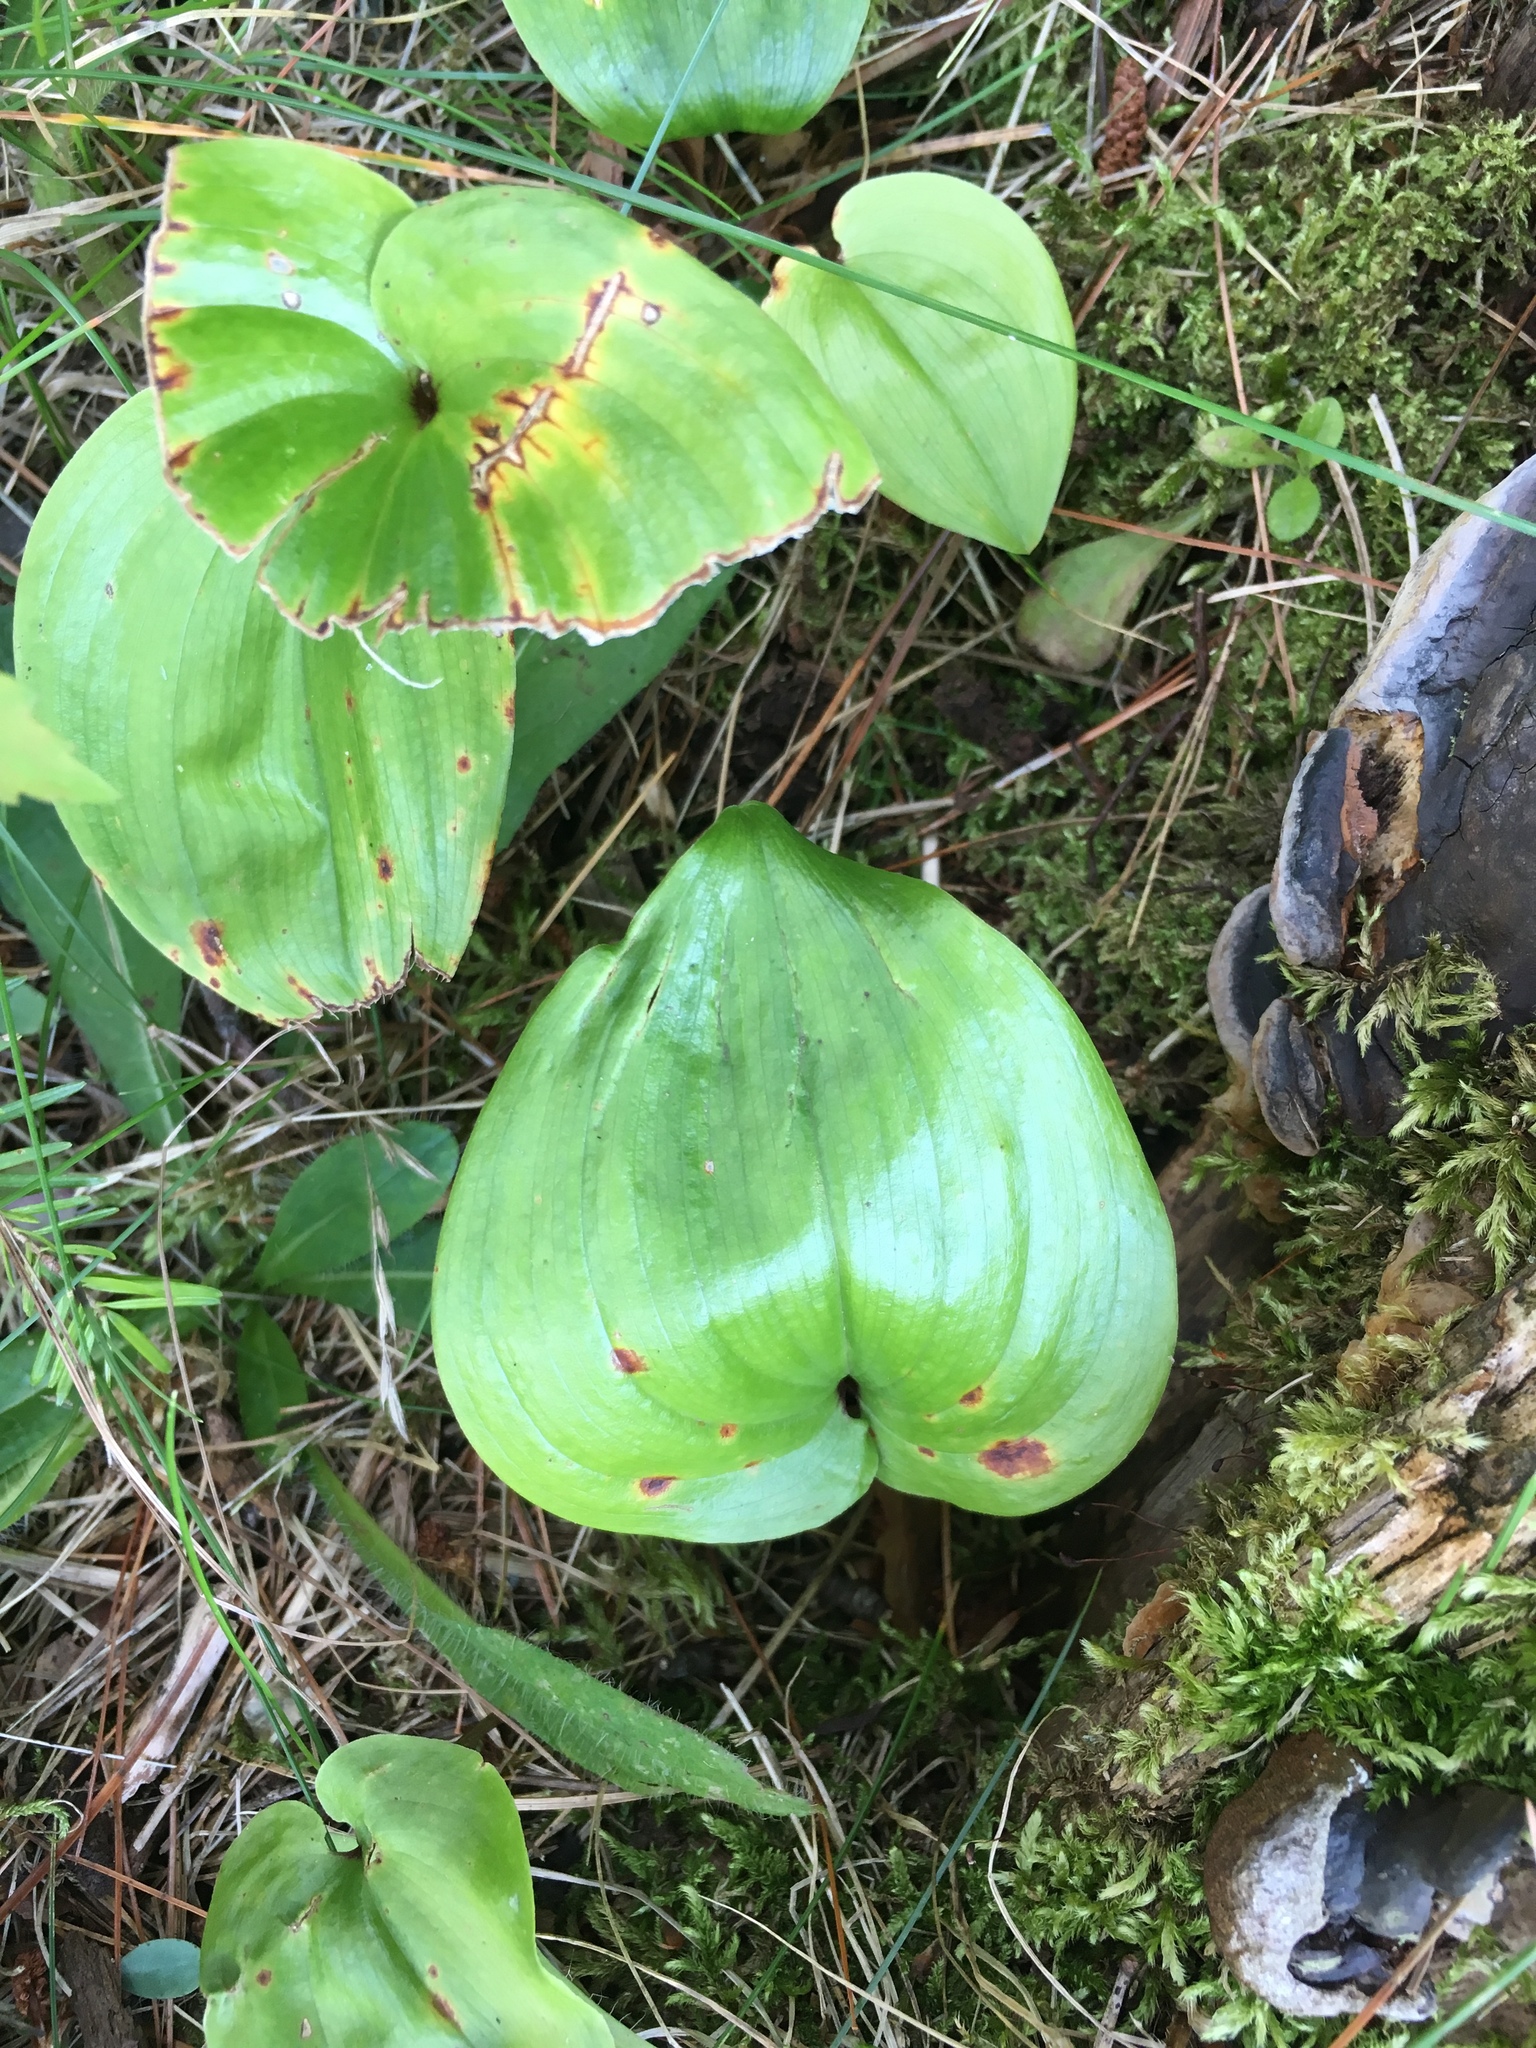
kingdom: Plantae
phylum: Tracheophyta
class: Liliopsida
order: Asparagales
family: Asparagaceae
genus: Maianthemum
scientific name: Maianthemum canadense
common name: False lily-of-the-valley
